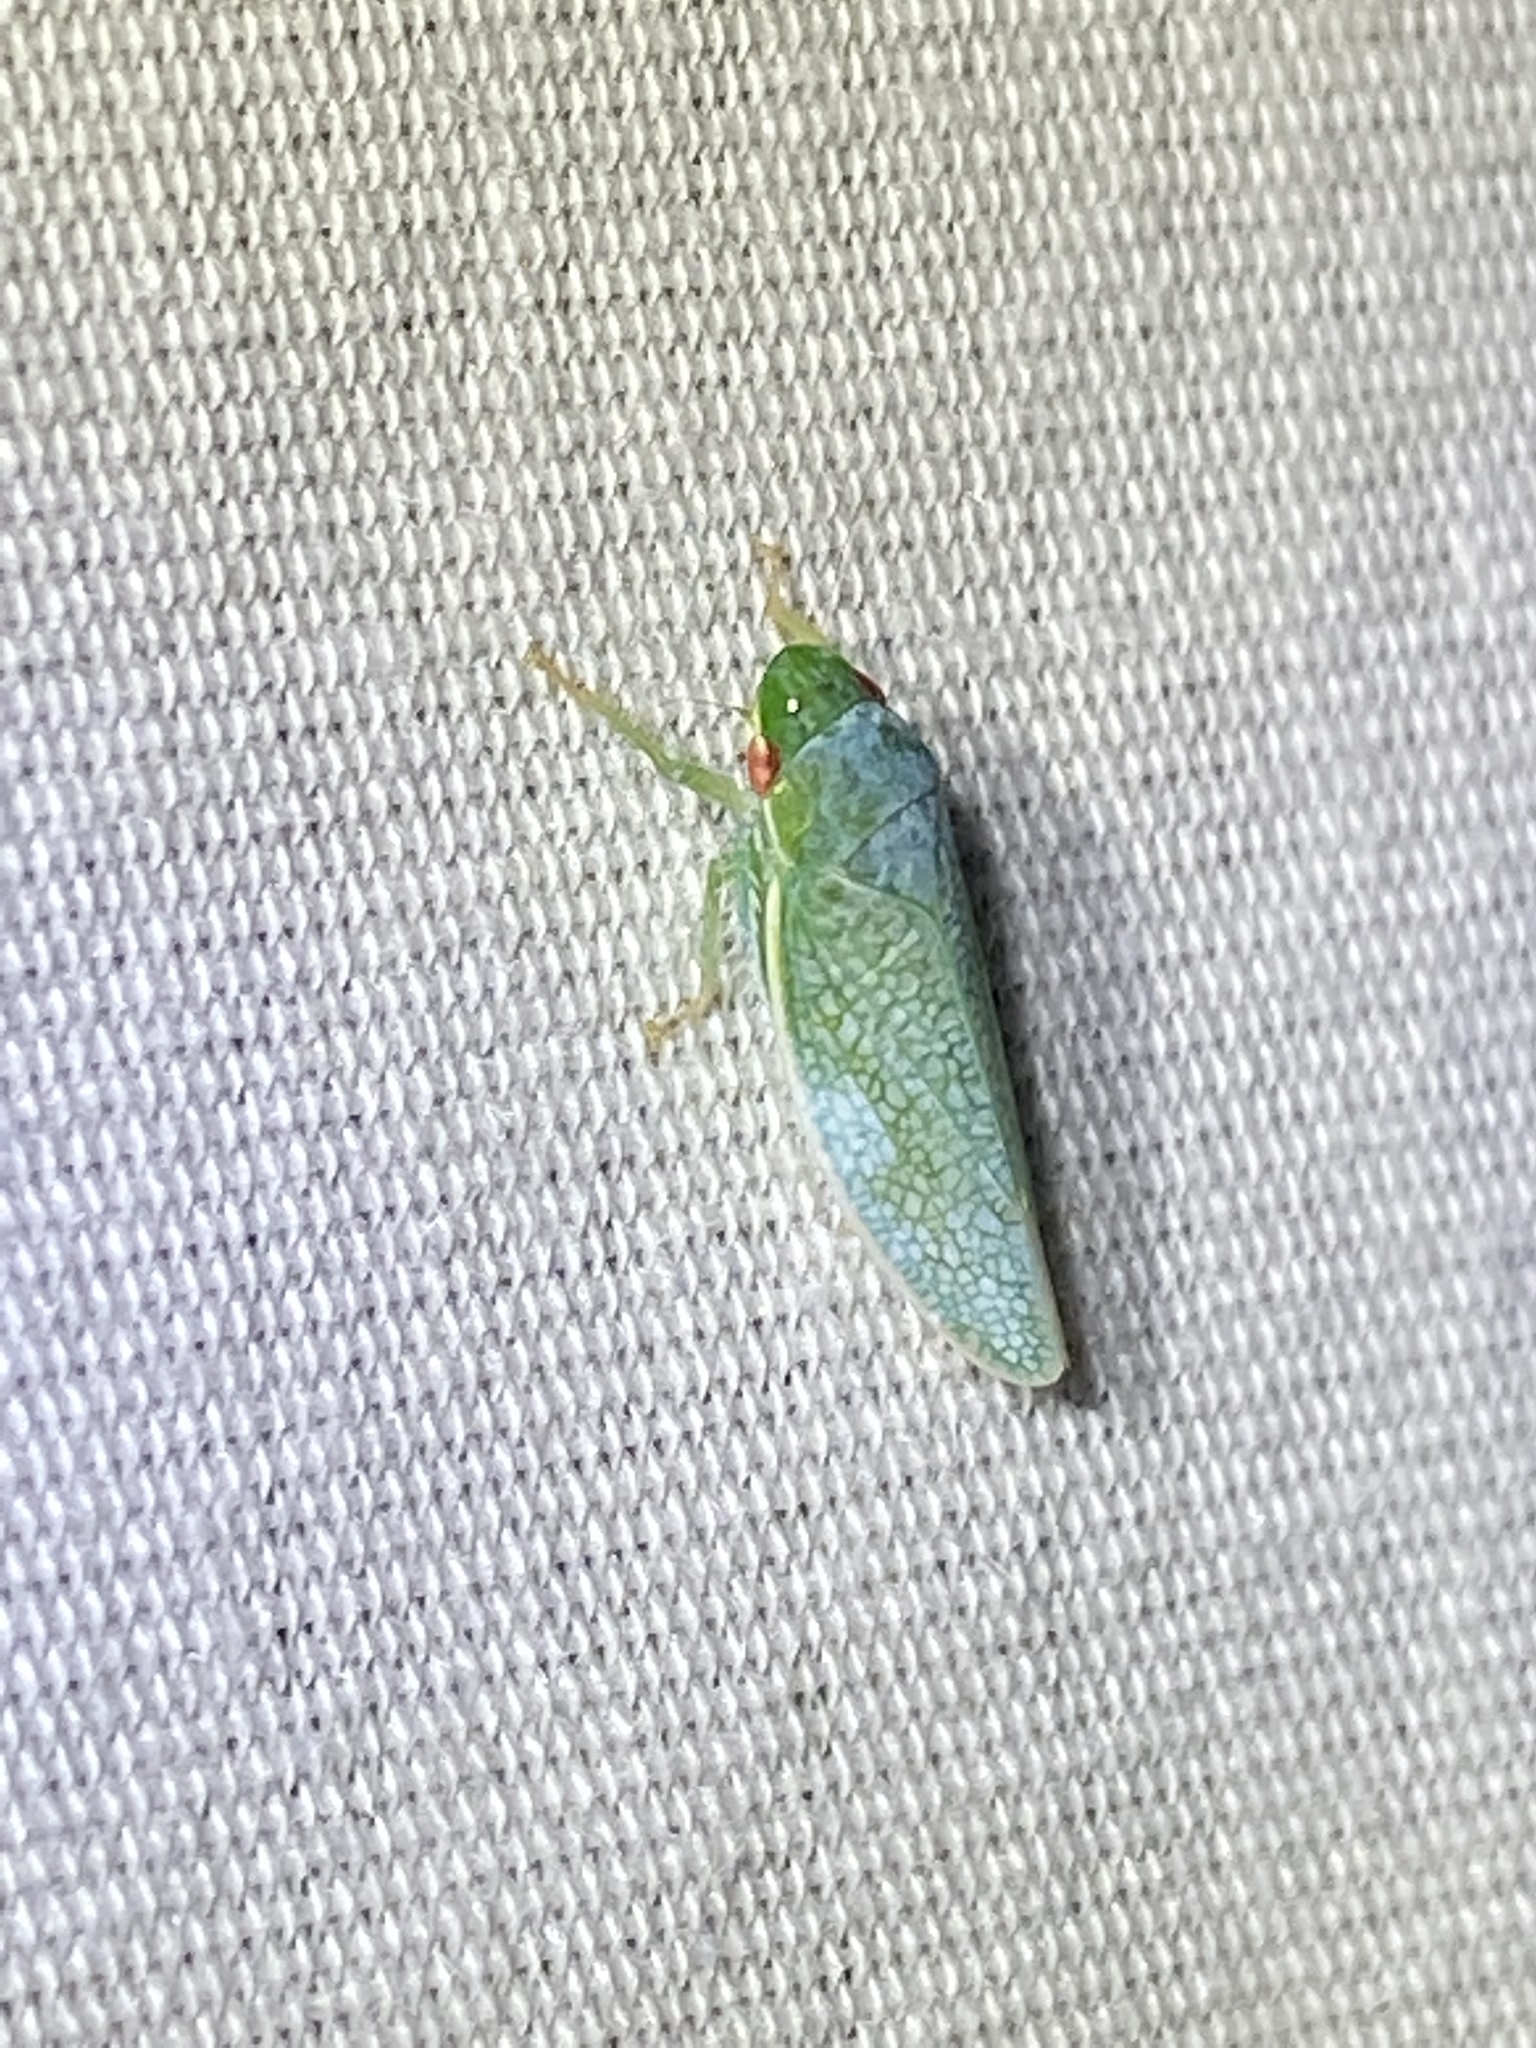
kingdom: Animalia
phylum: Arthropoda
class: Insecta
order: Hemiptera
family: Cicadellidae
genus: Gyponana
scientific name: Gyponana procera
